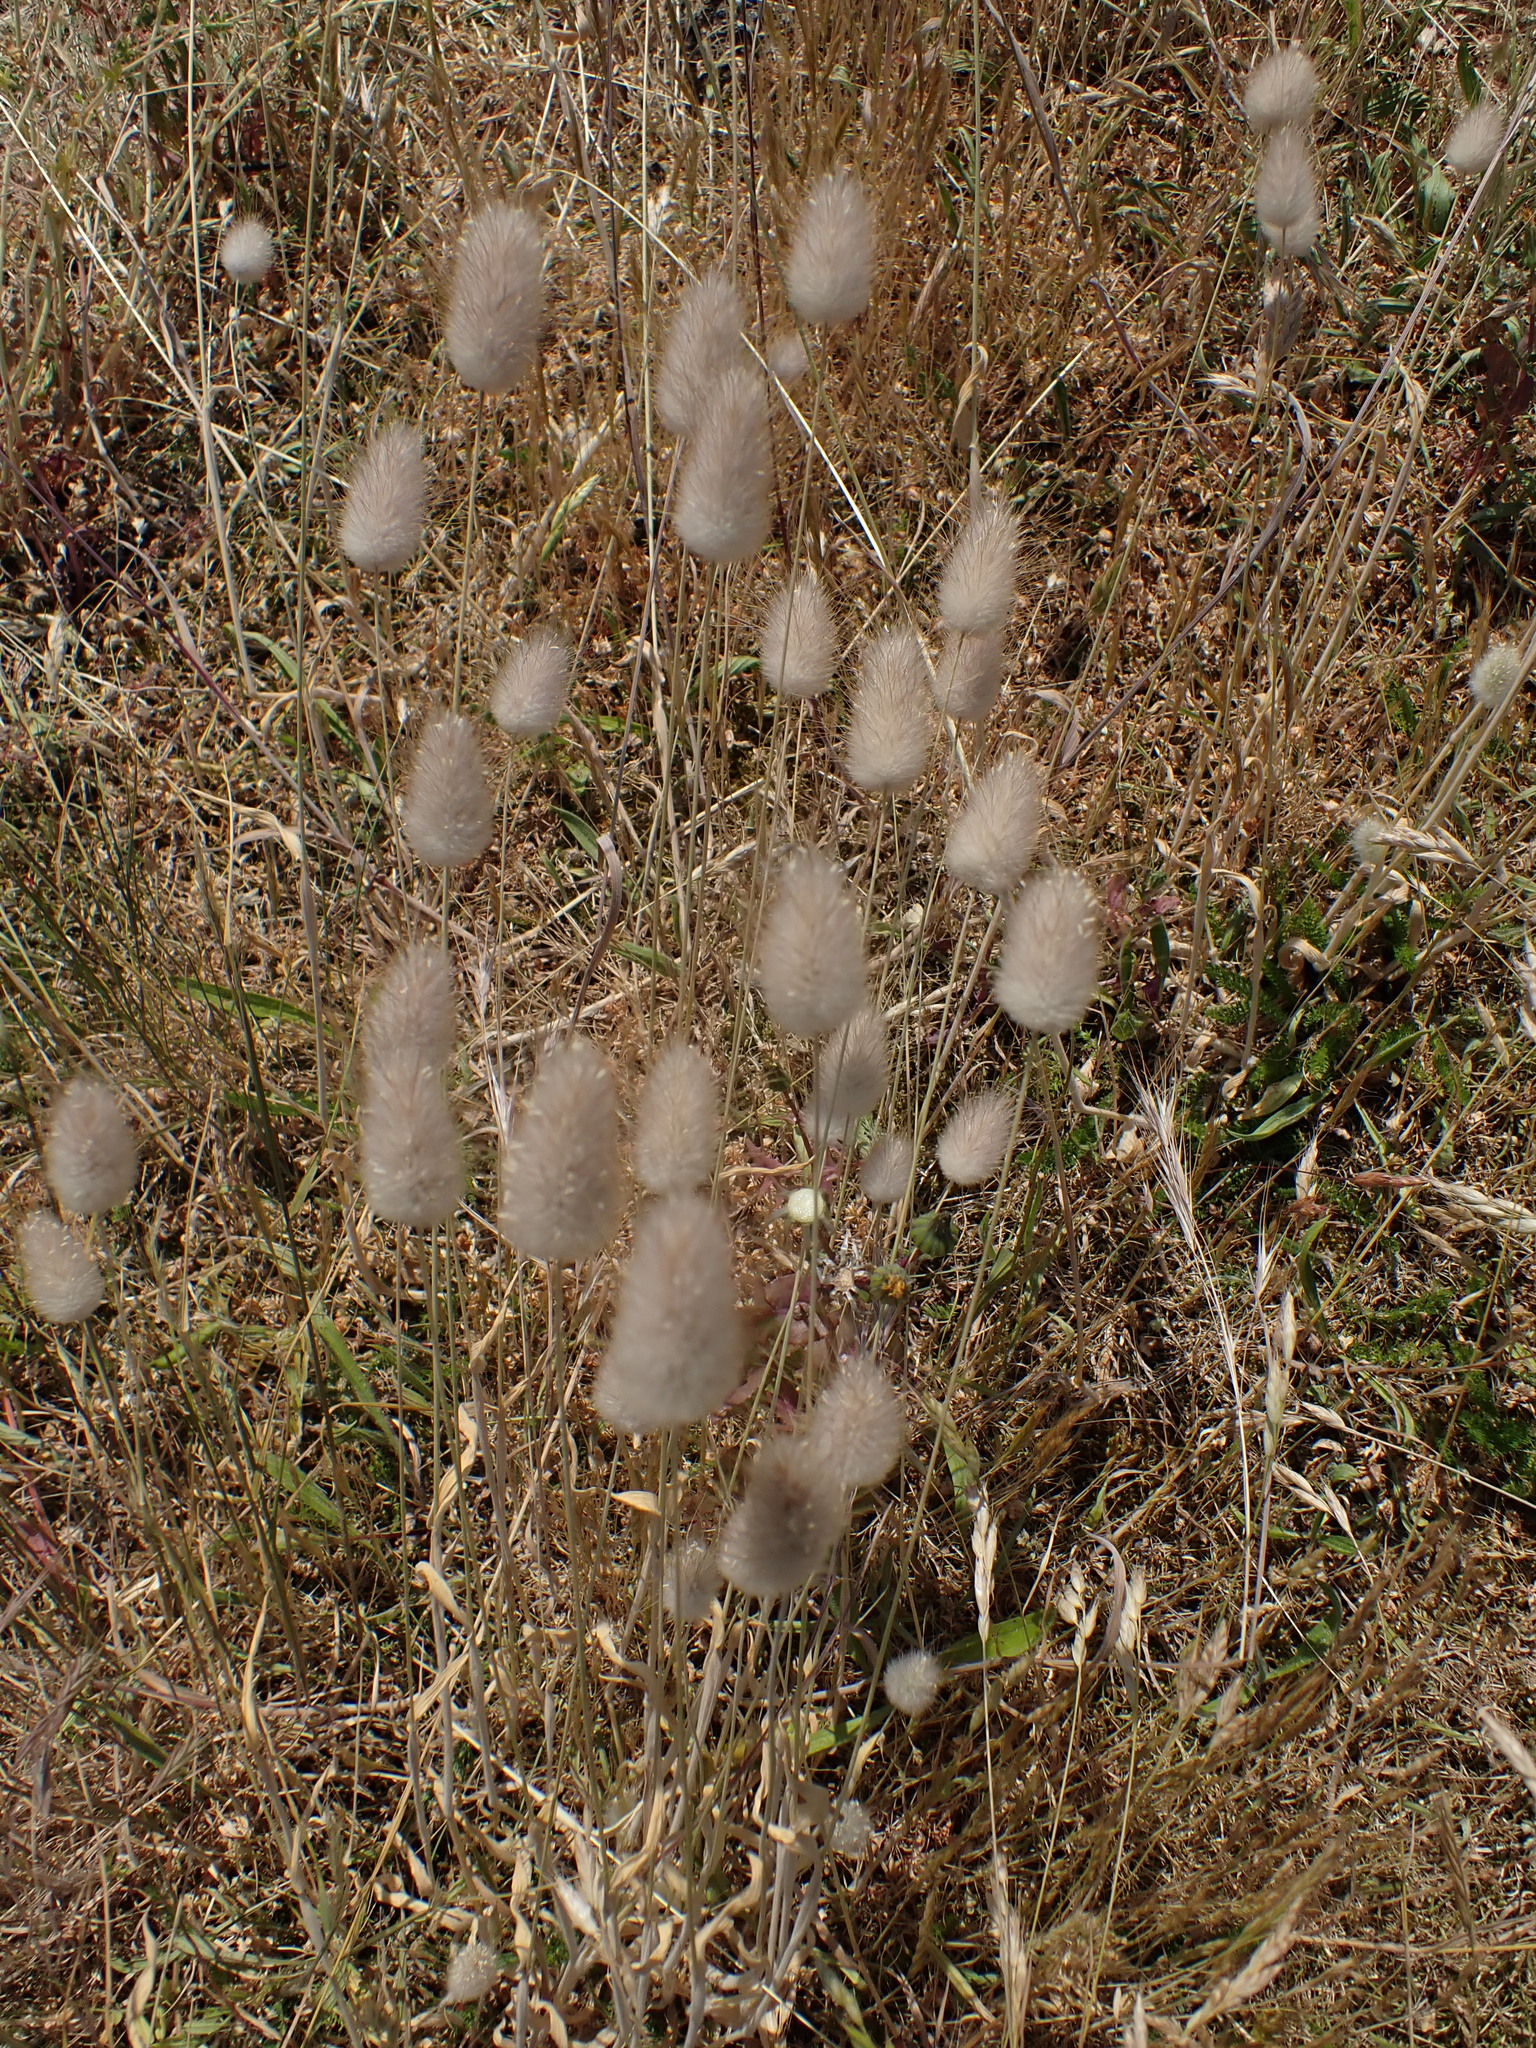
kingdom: Plantae
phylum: Tracheophyta
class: Liliopsida
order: Poales
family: Poaceae
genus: Lagurus
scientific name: Lagurus ovatus
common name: Hare's-tail
